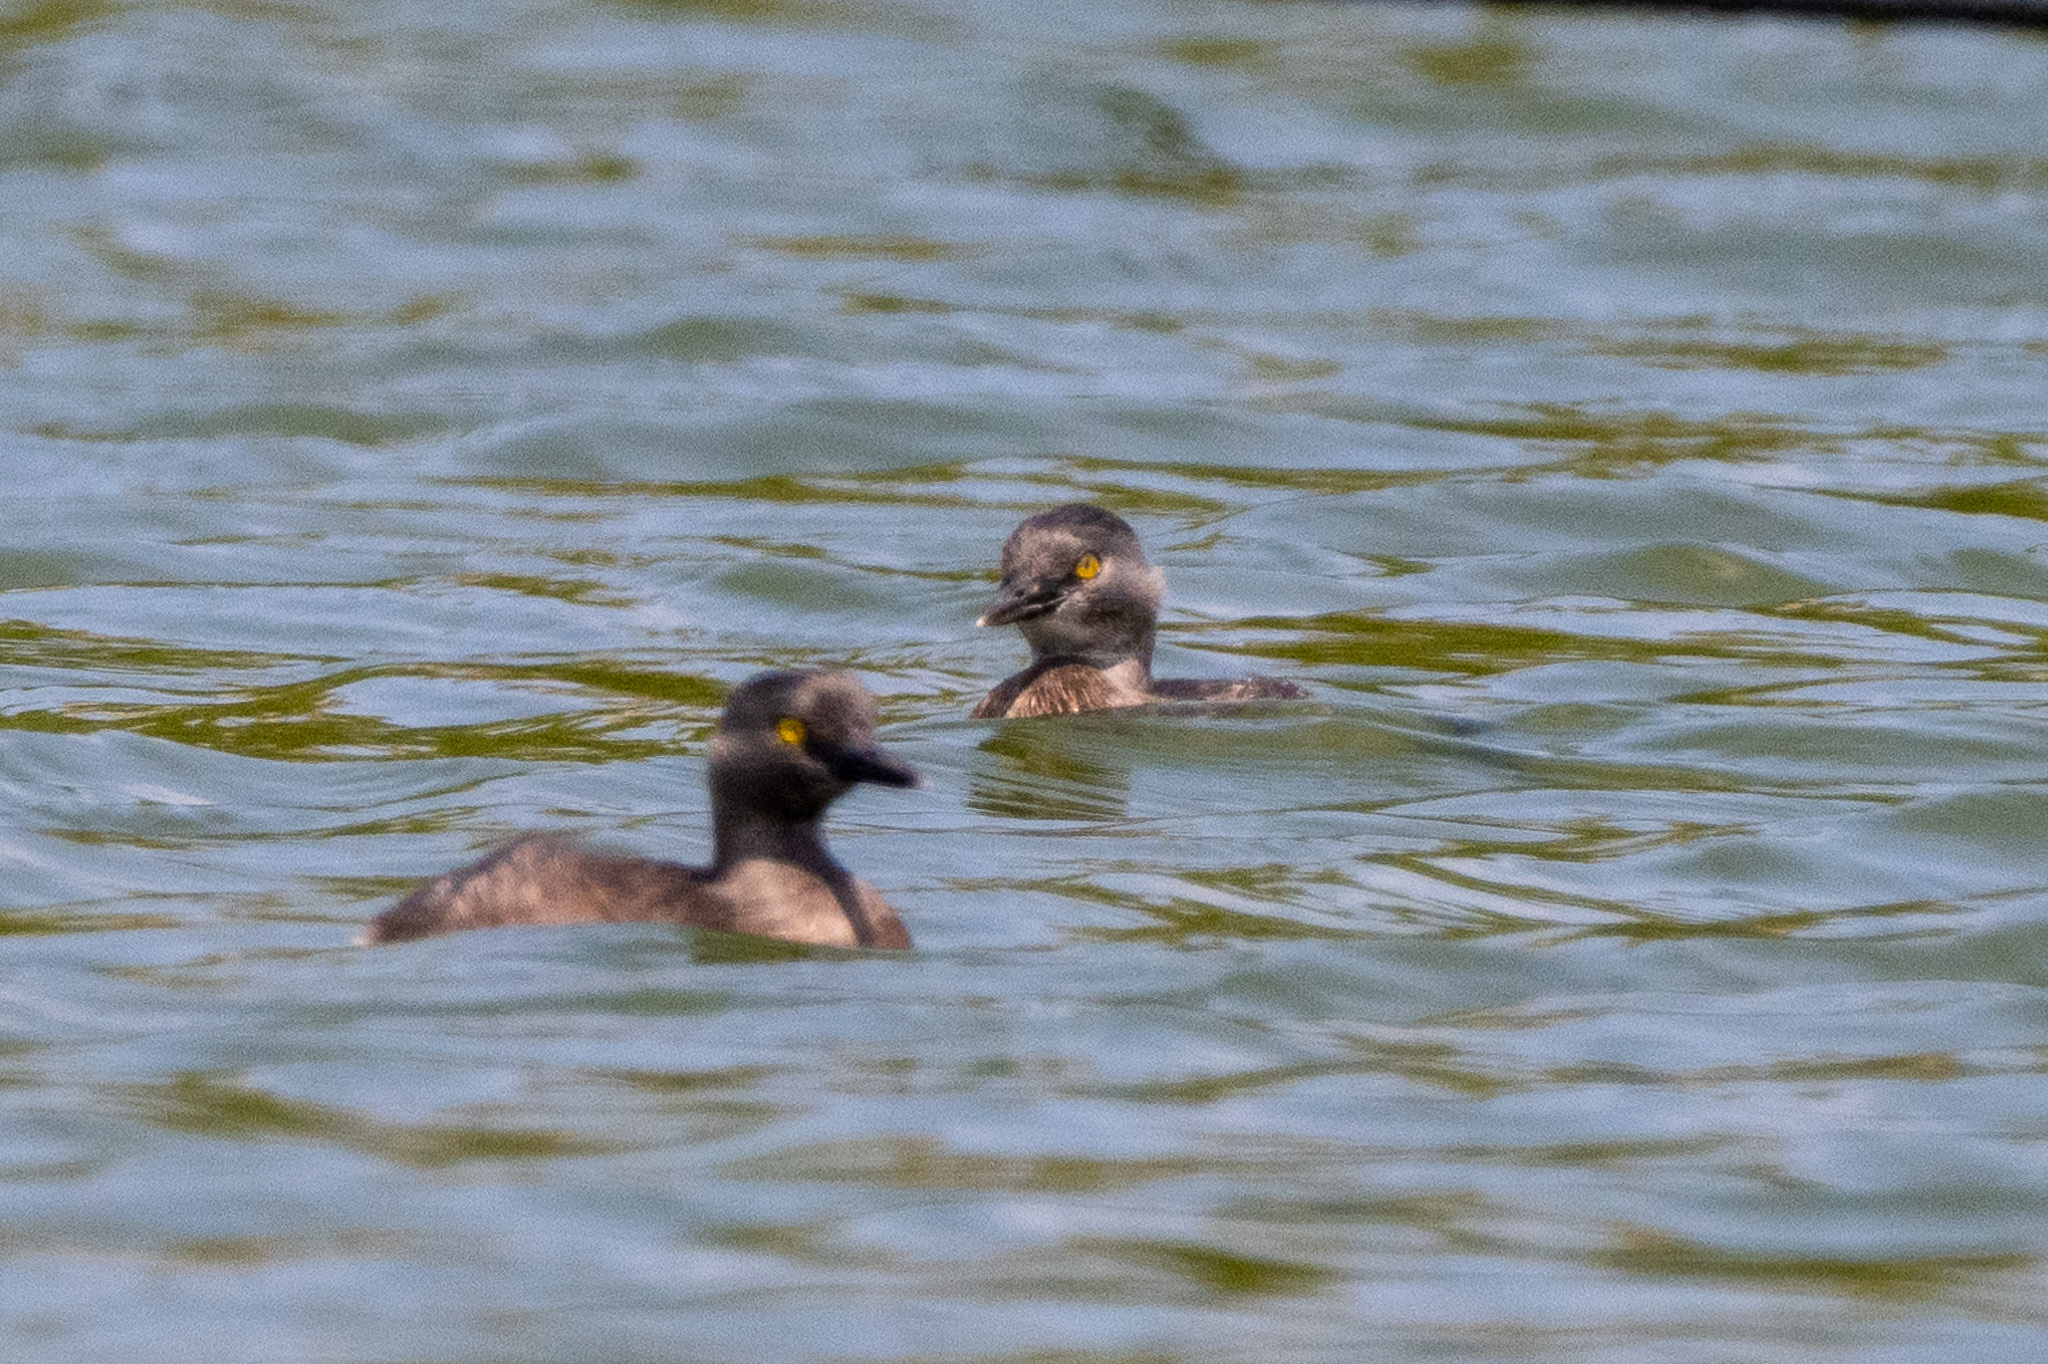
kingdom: Animalia
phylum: Chordata
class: Aves
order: Podicipediformes
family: Podicipedidae
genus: Tachybaptus
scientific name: Tachybaptus dominicus
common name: Least grebe
